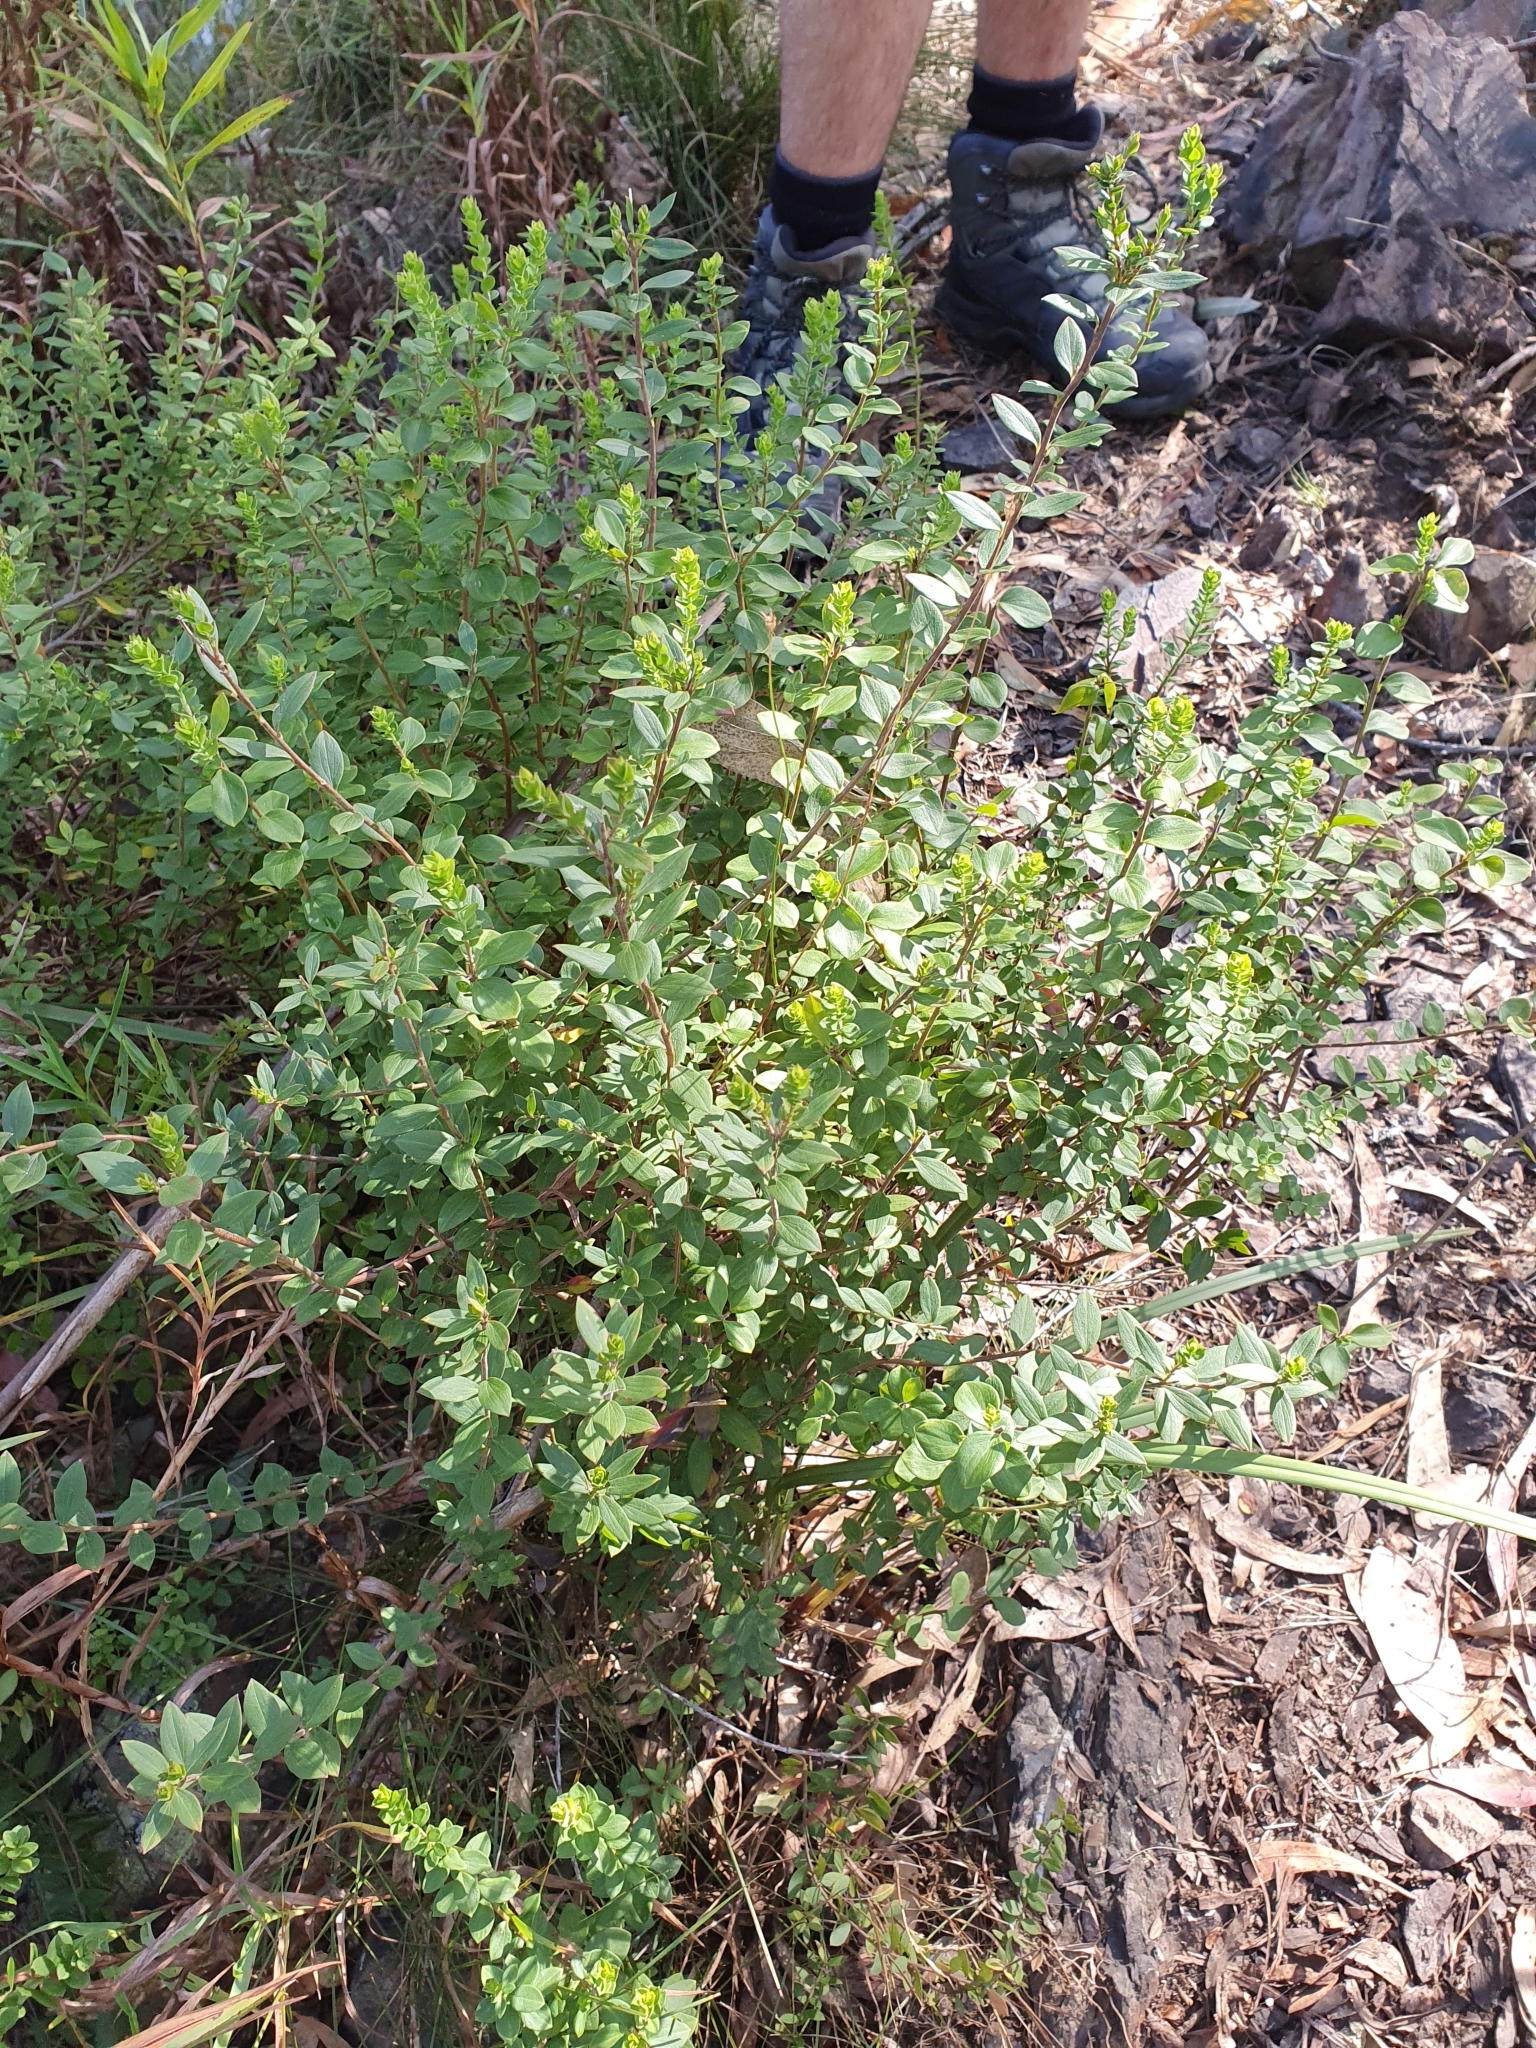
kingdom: Plantae
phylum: Tracheophyta
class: Magnoliopsida
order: Apiales
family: Apiaceae
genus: Platysace
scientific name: Platysace lanceolata
